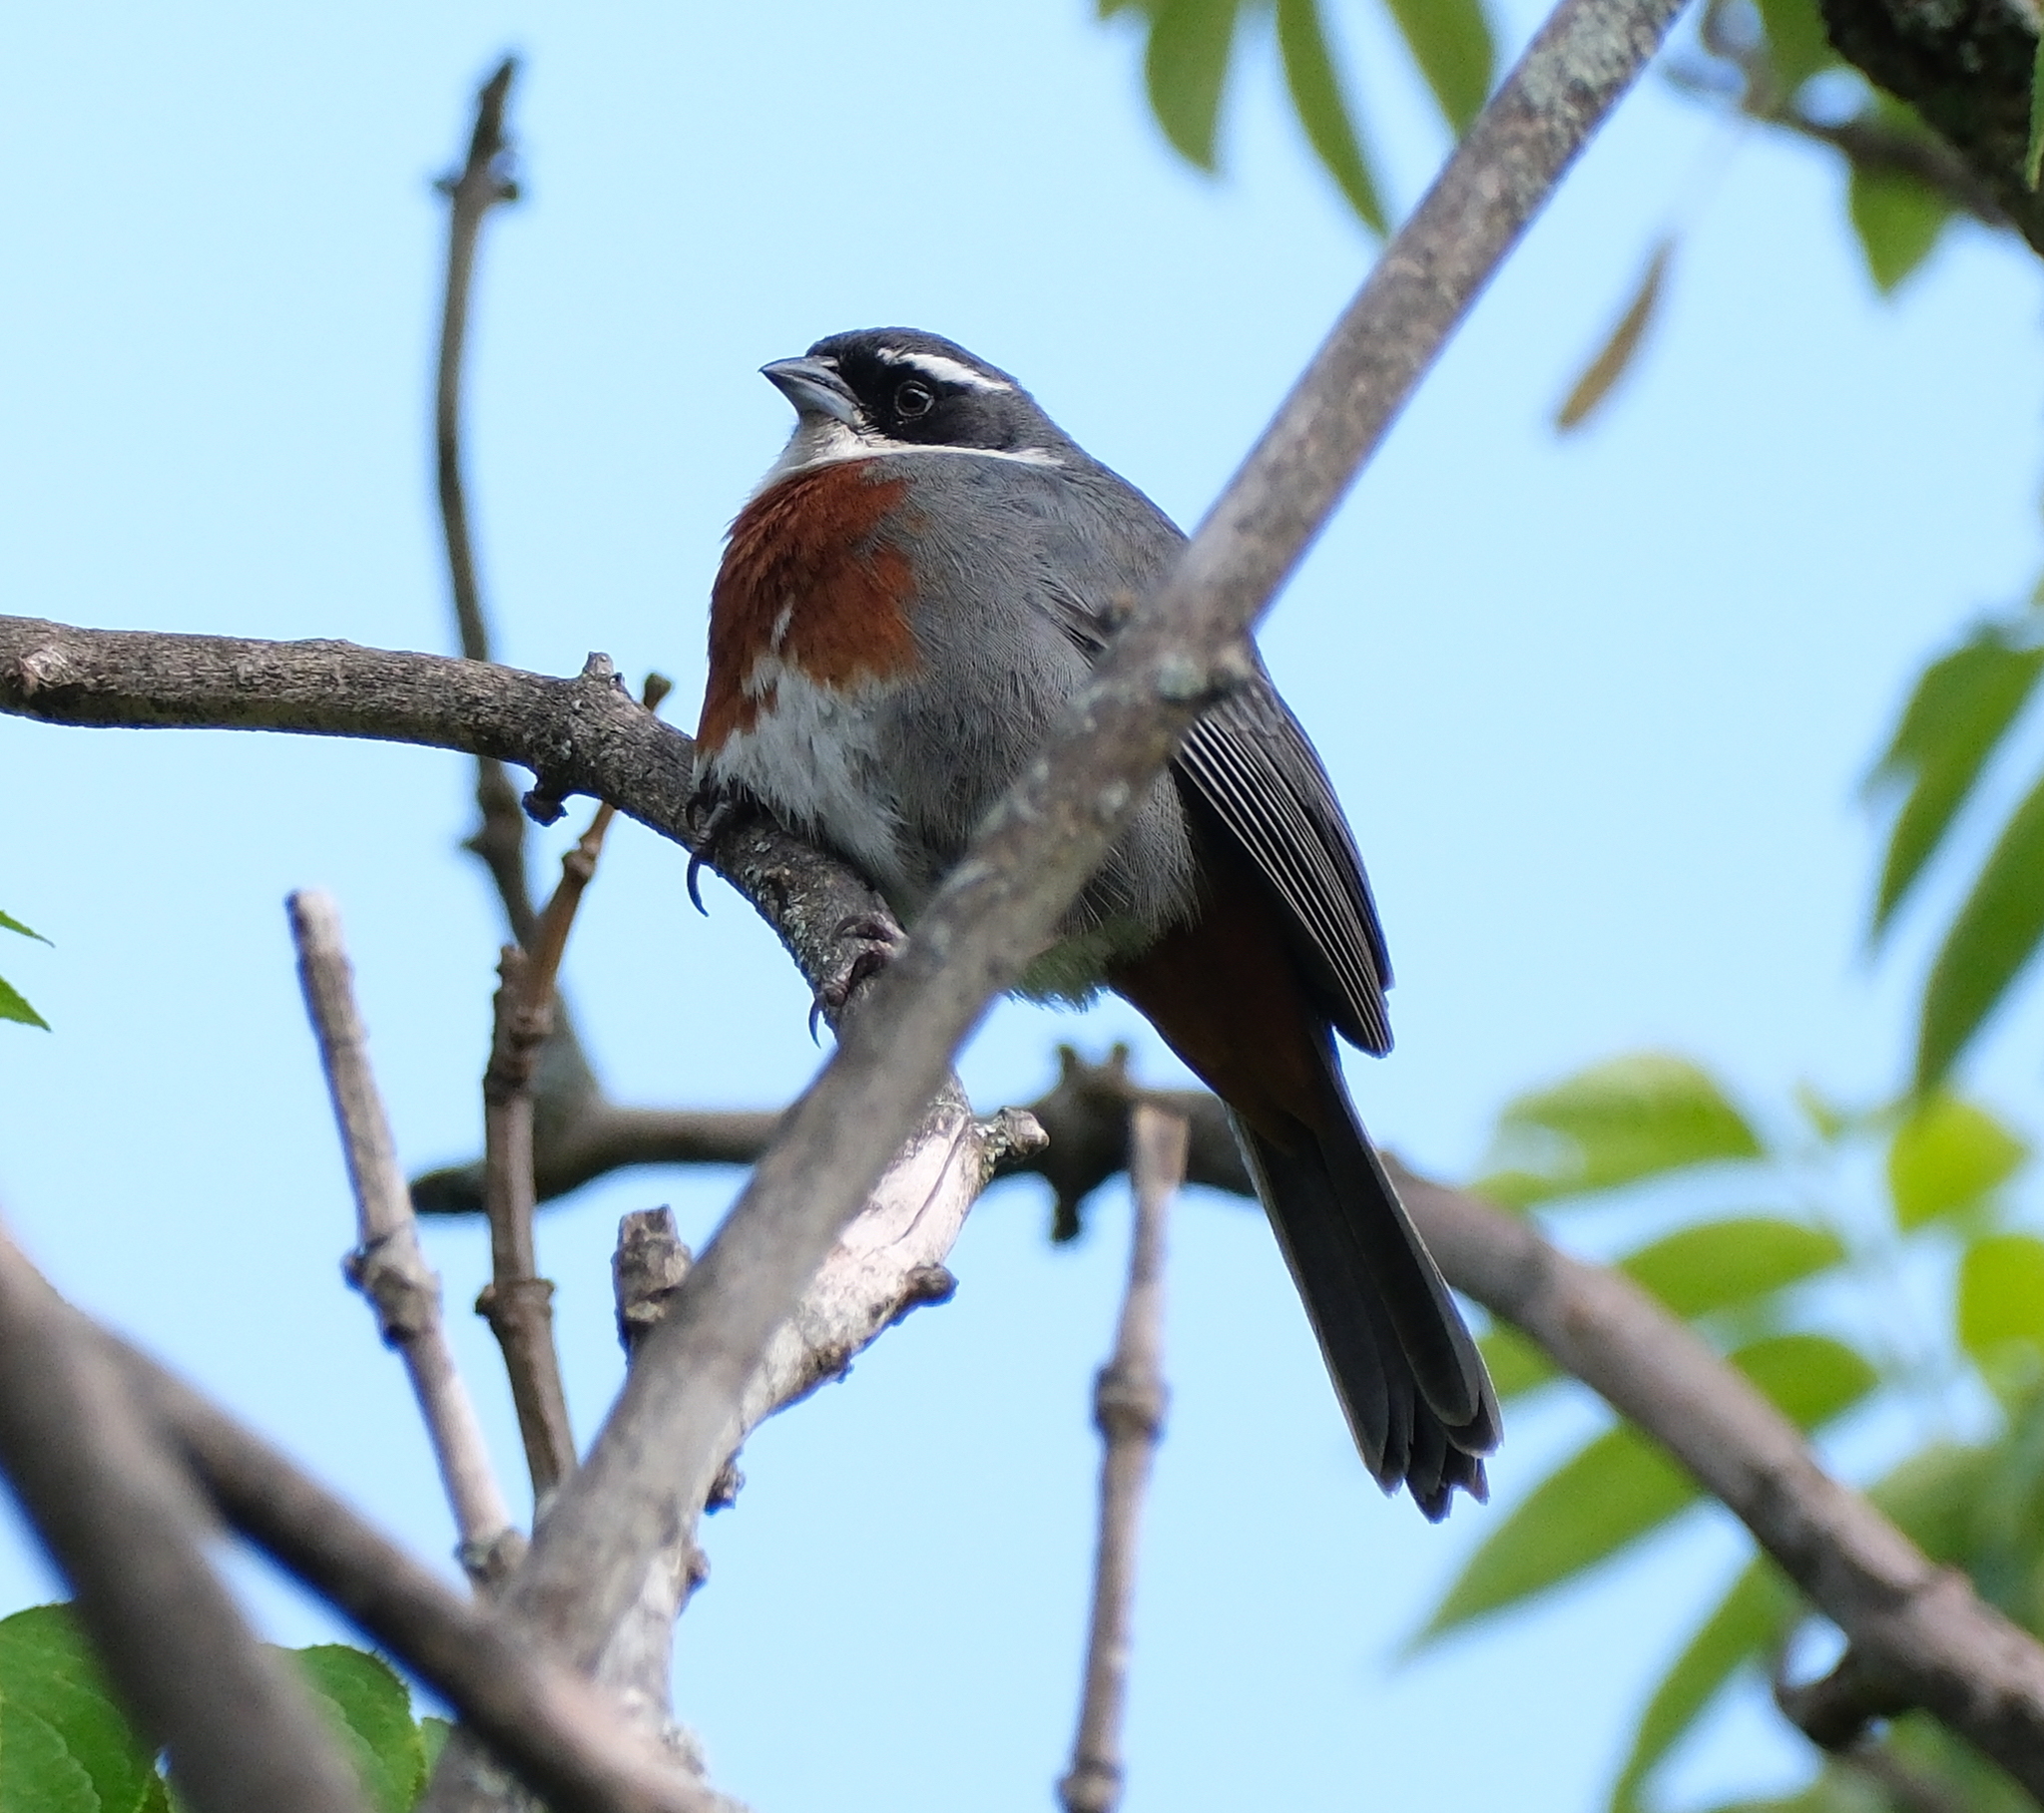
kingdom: Animalia
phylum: Chordata
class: Aves
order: Passeriformes
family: Thraupidae
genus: Poospizopsis
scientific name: Poospizopsis caesar
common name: Chestnut-breasted mountain-finch
